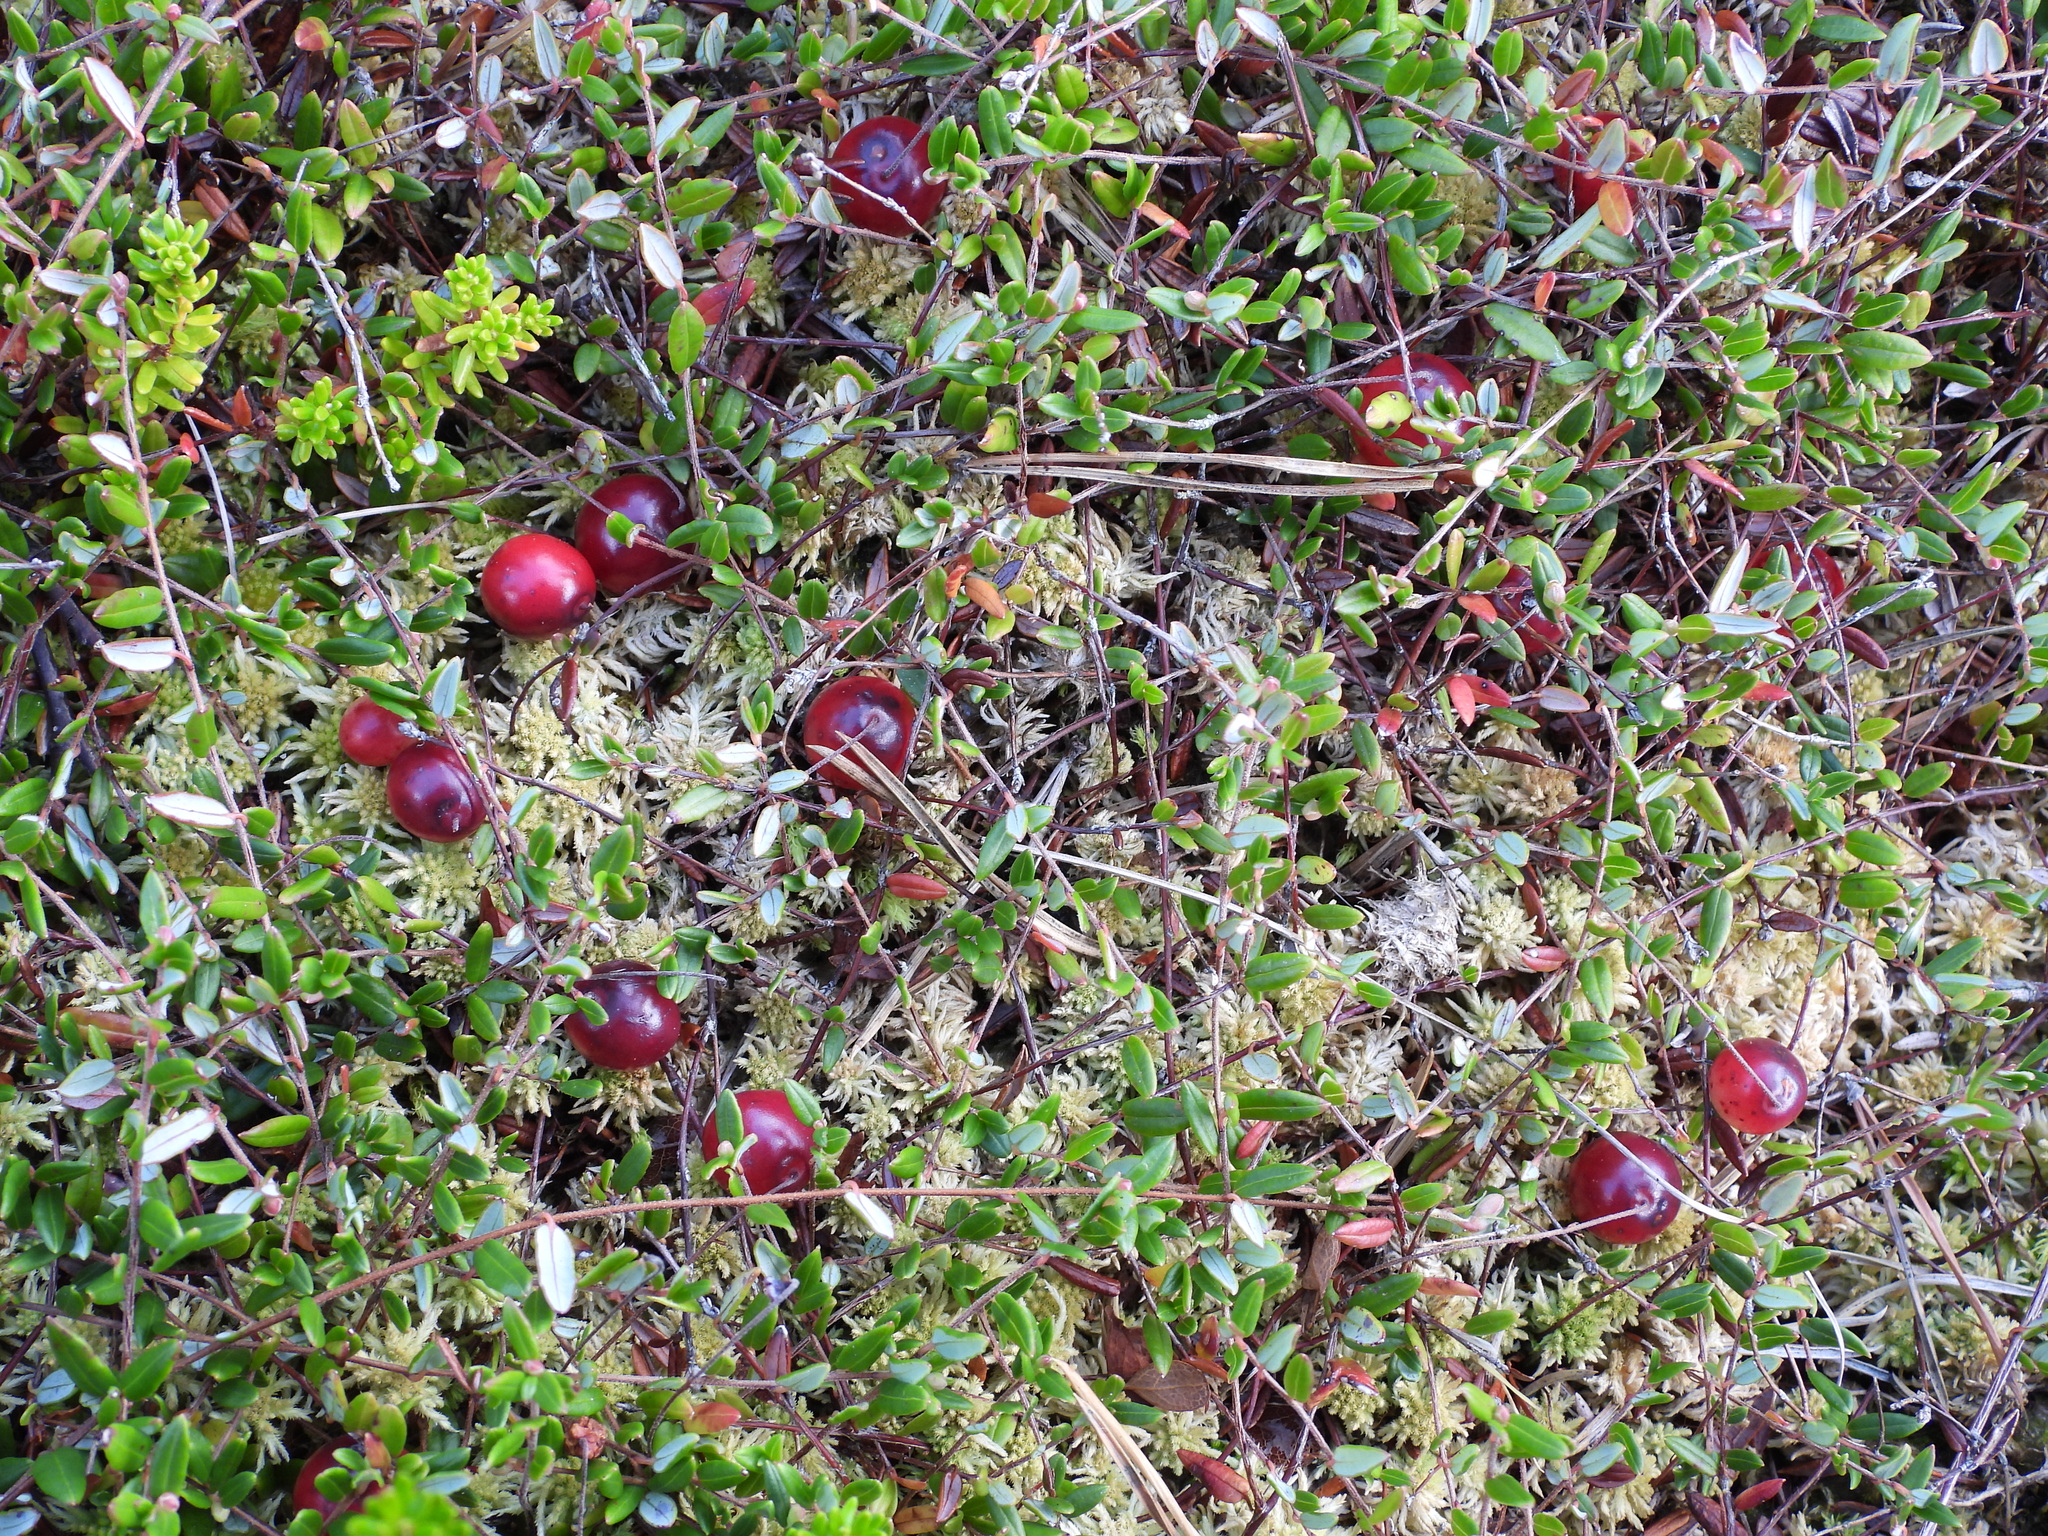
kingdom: Plantae
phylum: Tracheophyta
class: Magnoliopsida
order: Ericales
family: Ericaceae
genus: Vaccinium
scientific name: Vaccinium oxycoccos
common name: Cranberry
